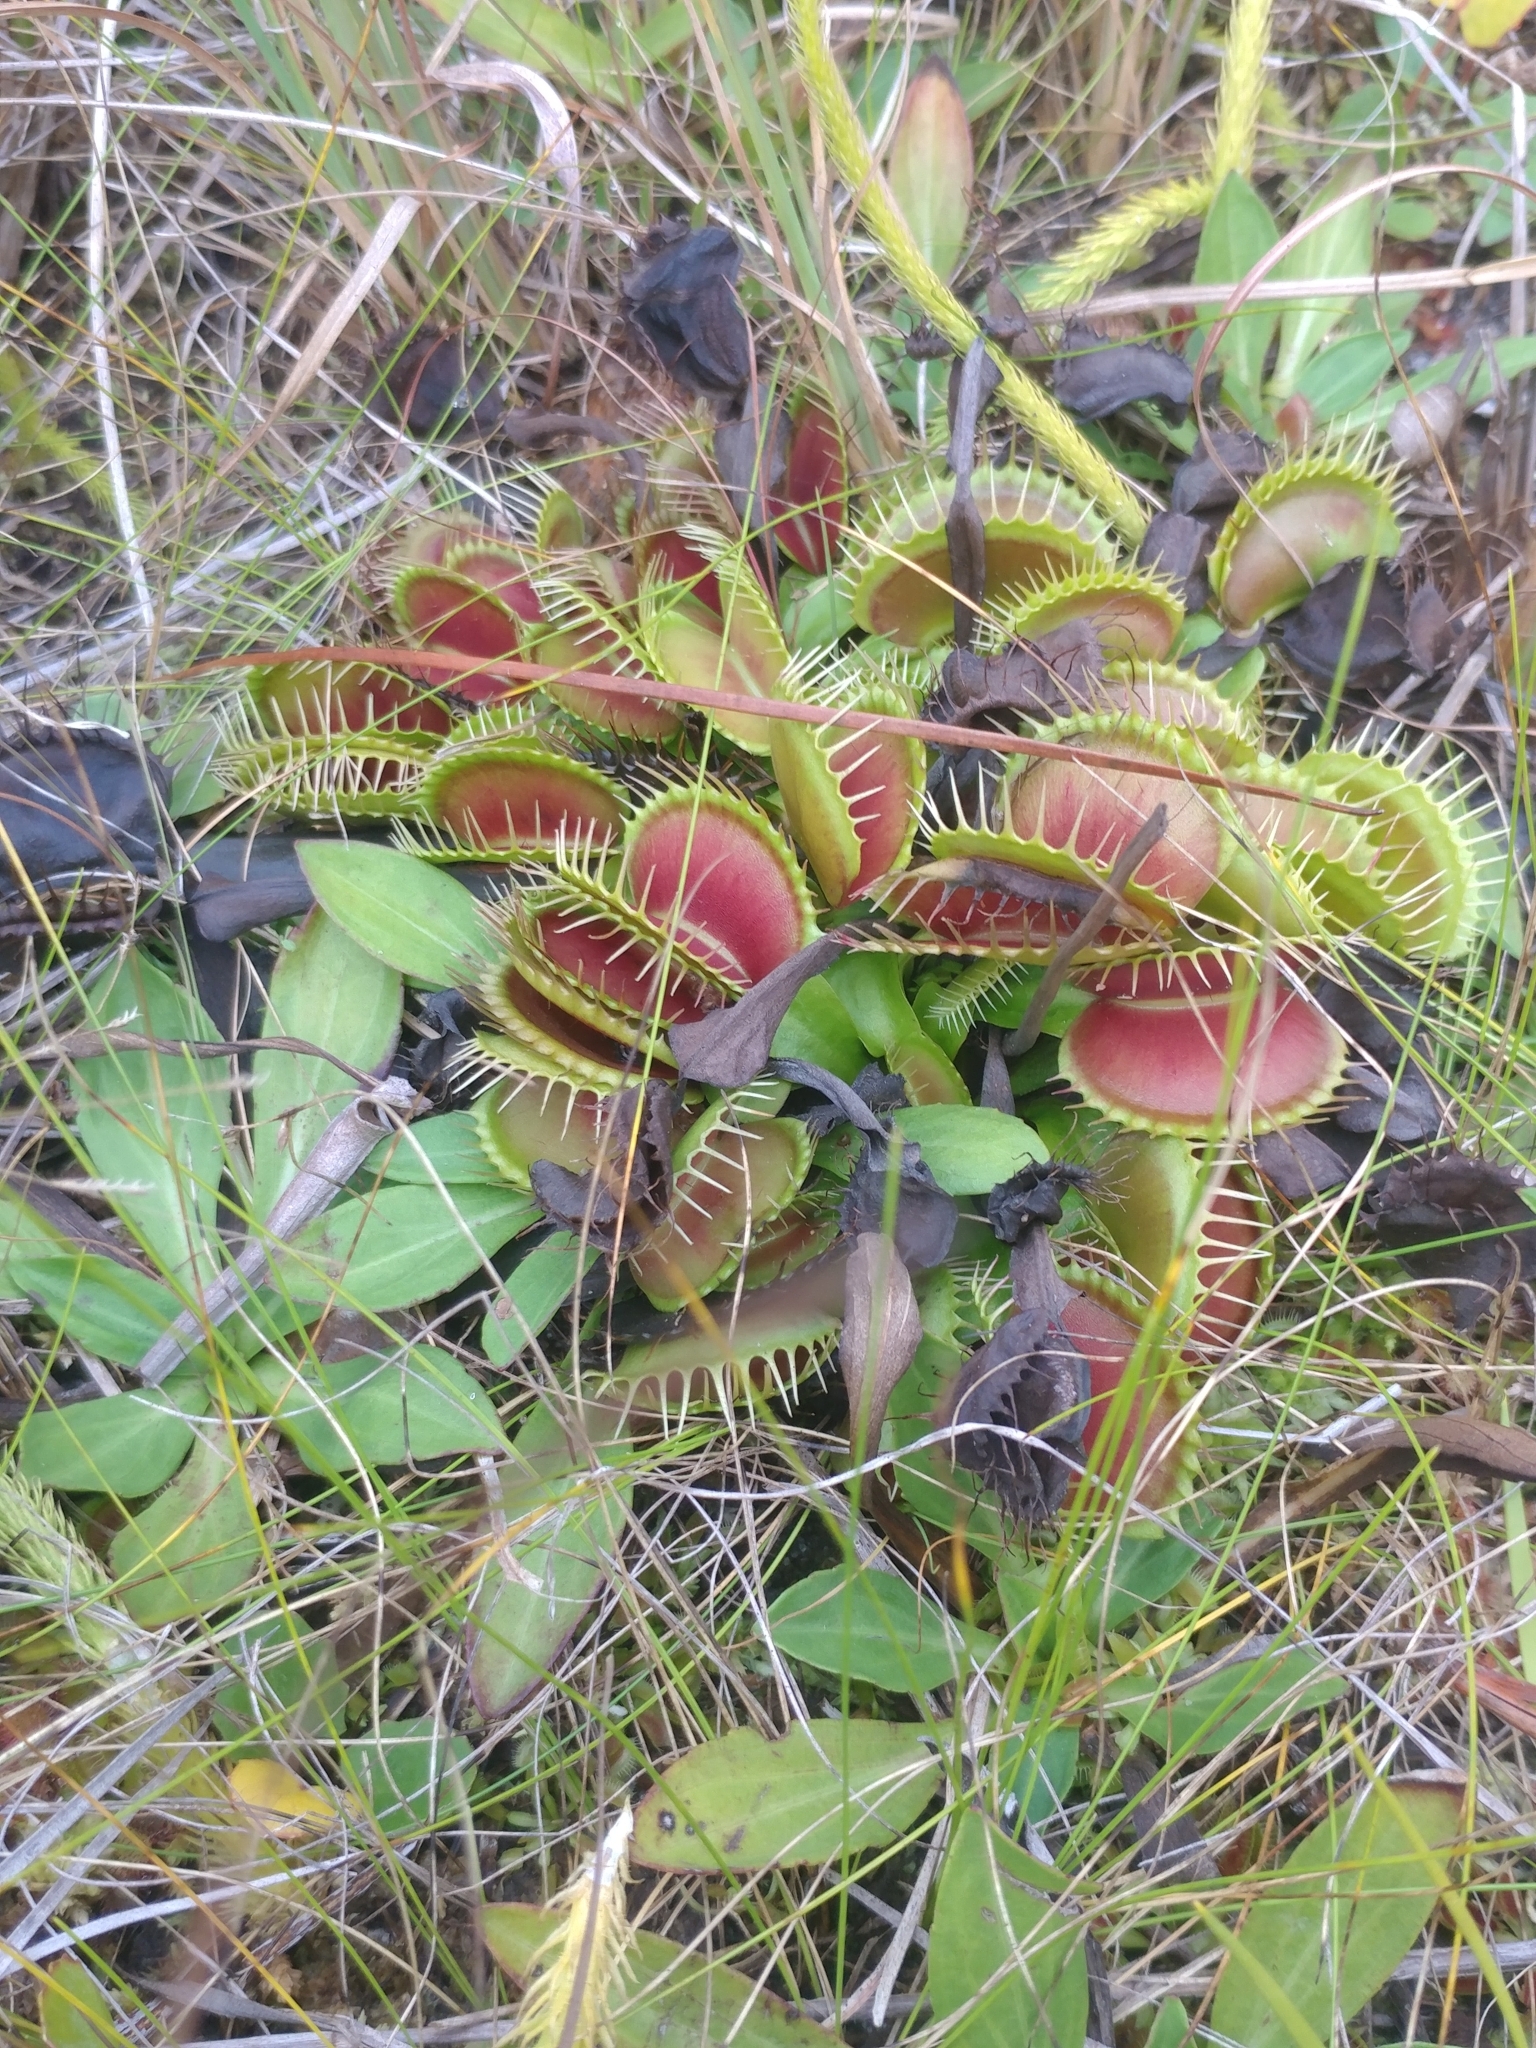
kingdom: Plantae
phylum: Tracheophyta
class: Magnoliopsida
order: Caryophyllales
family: Droseraceae
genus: Dionaea
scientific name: Dionaea muscipula
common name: Venus flytrap
